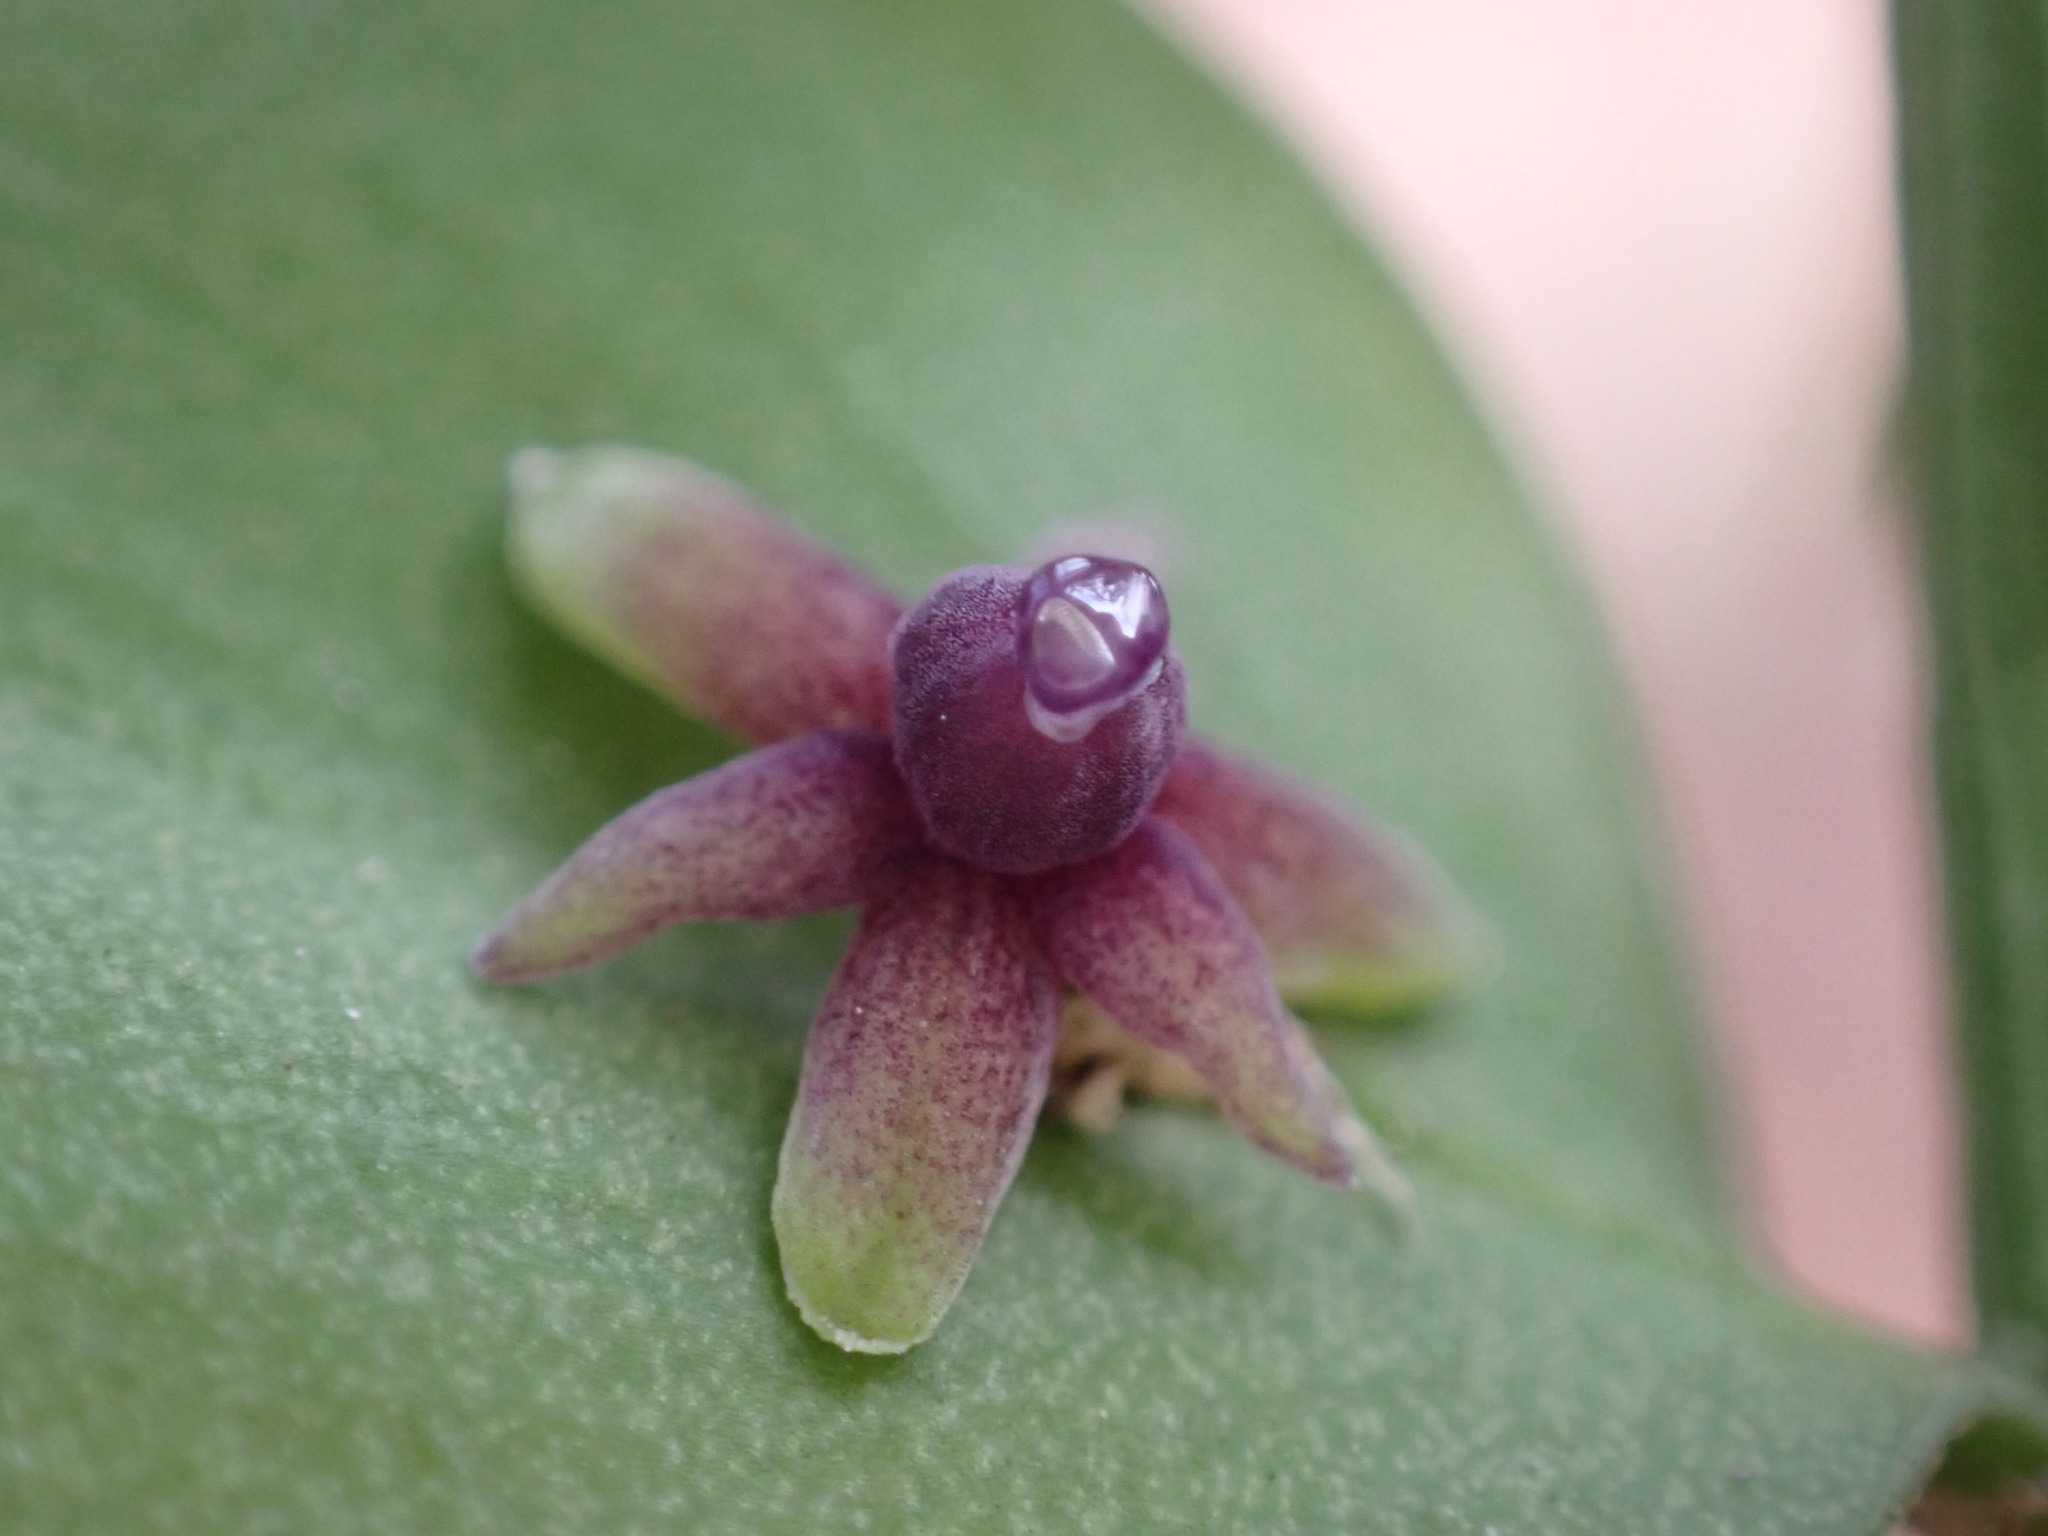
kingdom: Plantae
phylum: Tracheophyta
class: Liliopsida
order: Asparagales
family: Asparagaceae
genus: Ruscus
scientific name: Ruscus aculeatus
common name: Butcher's-broom
